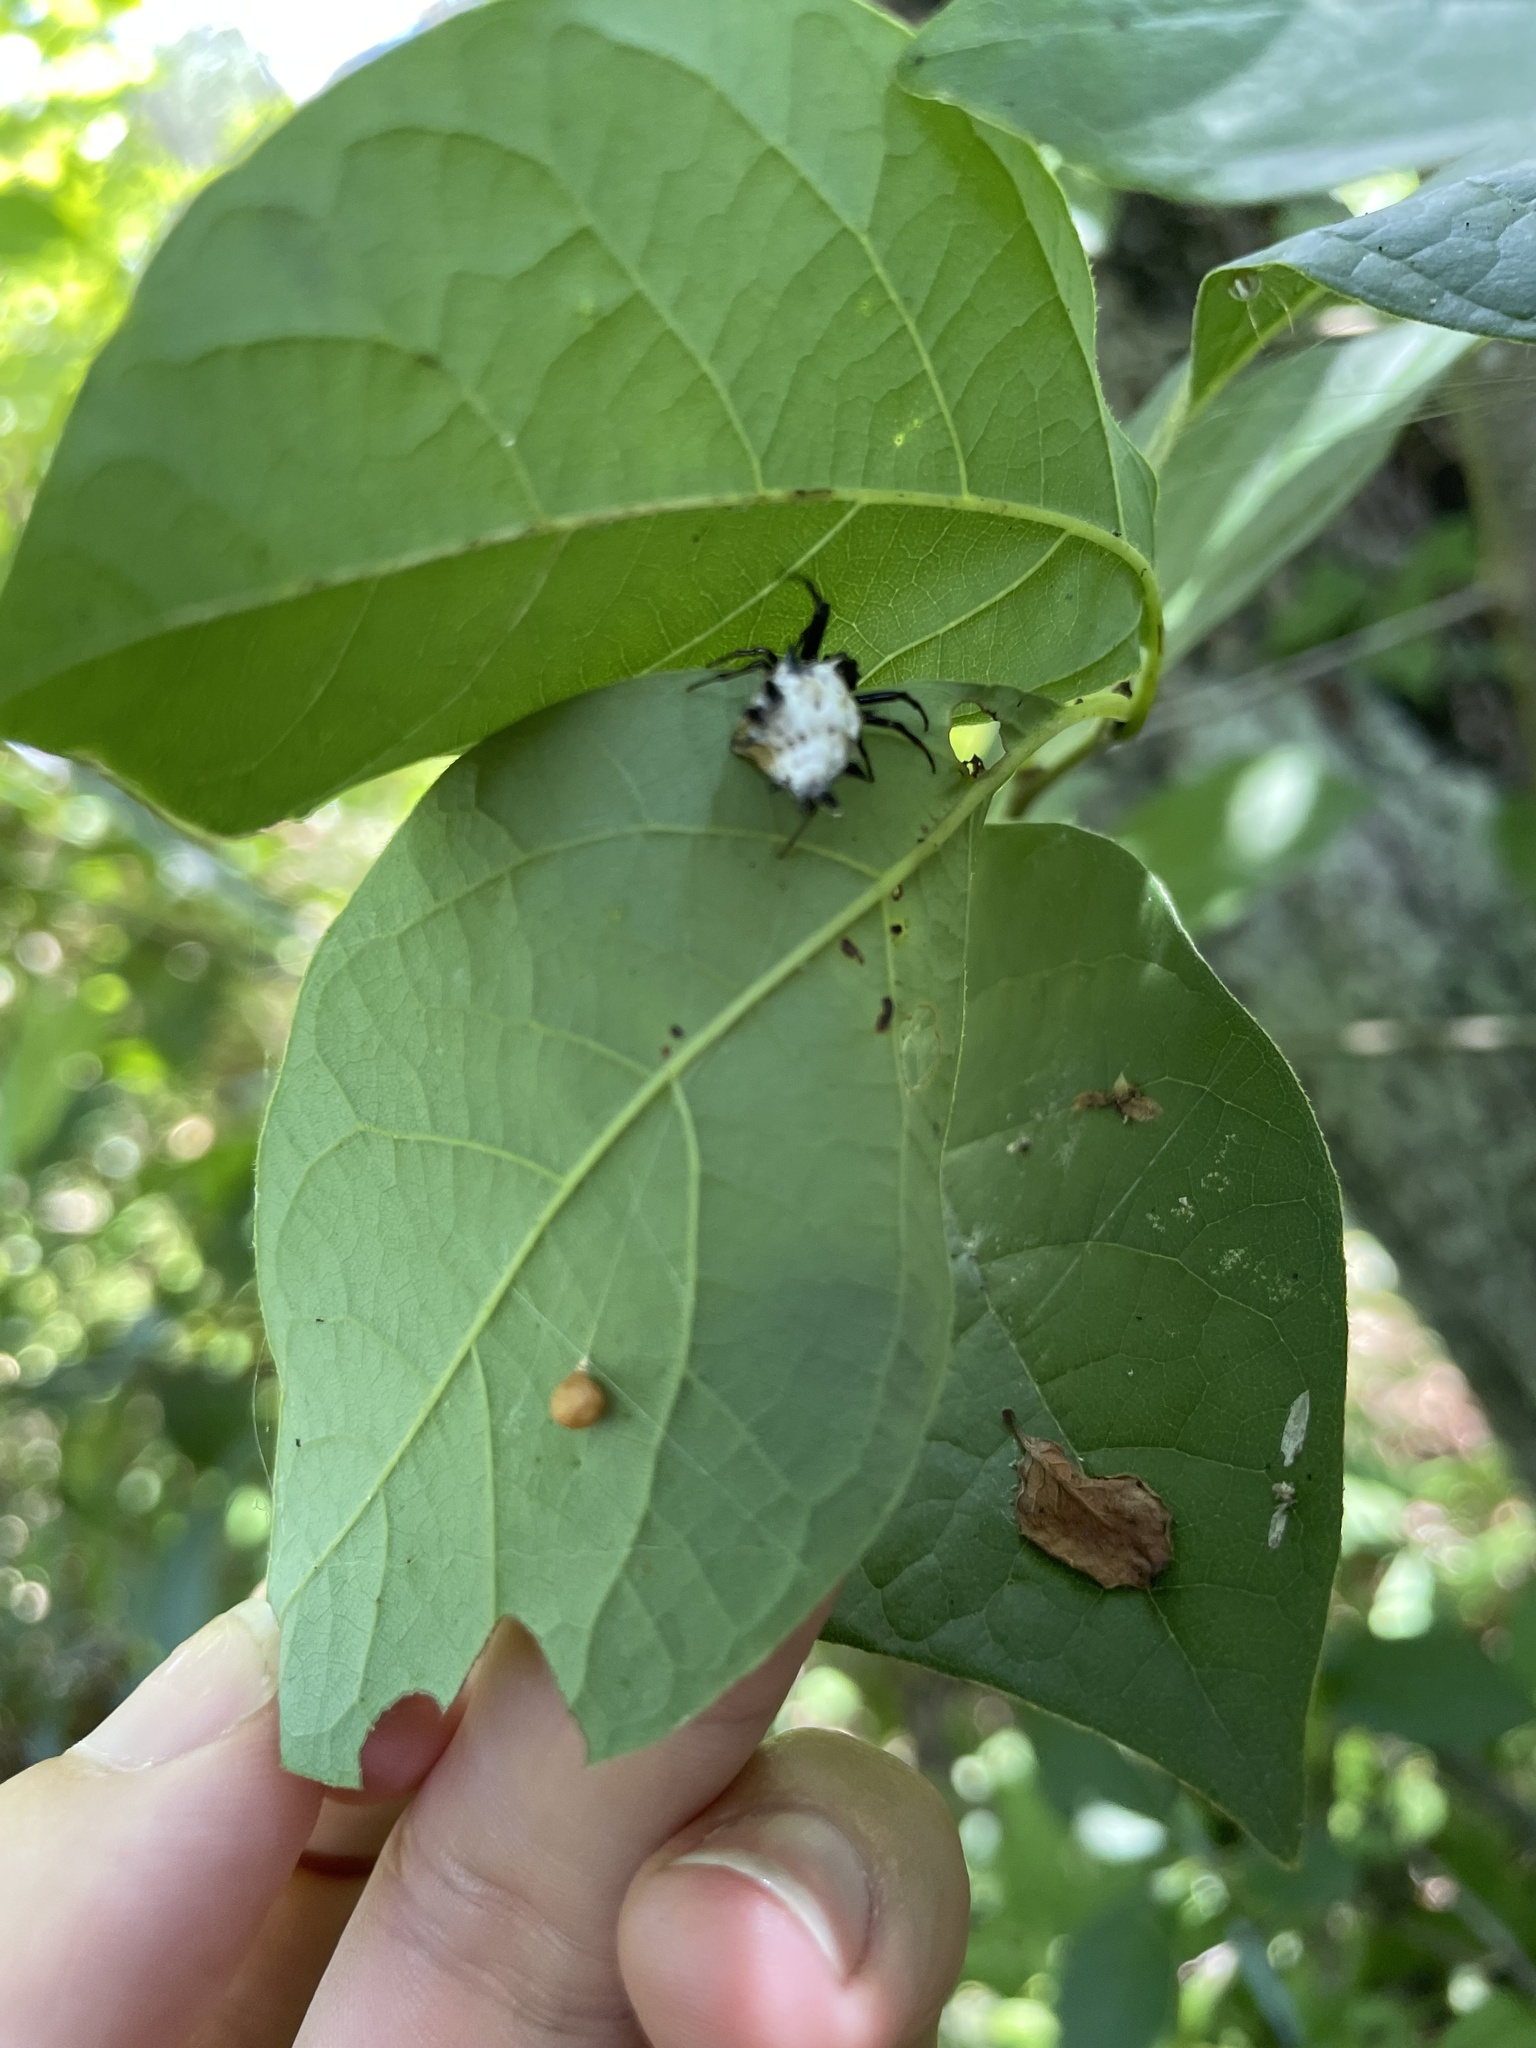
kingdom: Animalia
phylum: Arthropoda
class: Arachnida
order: Araneae
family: Araneidae
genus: Micrathena
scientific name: Micrathena gracilis
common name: Orb weavers
